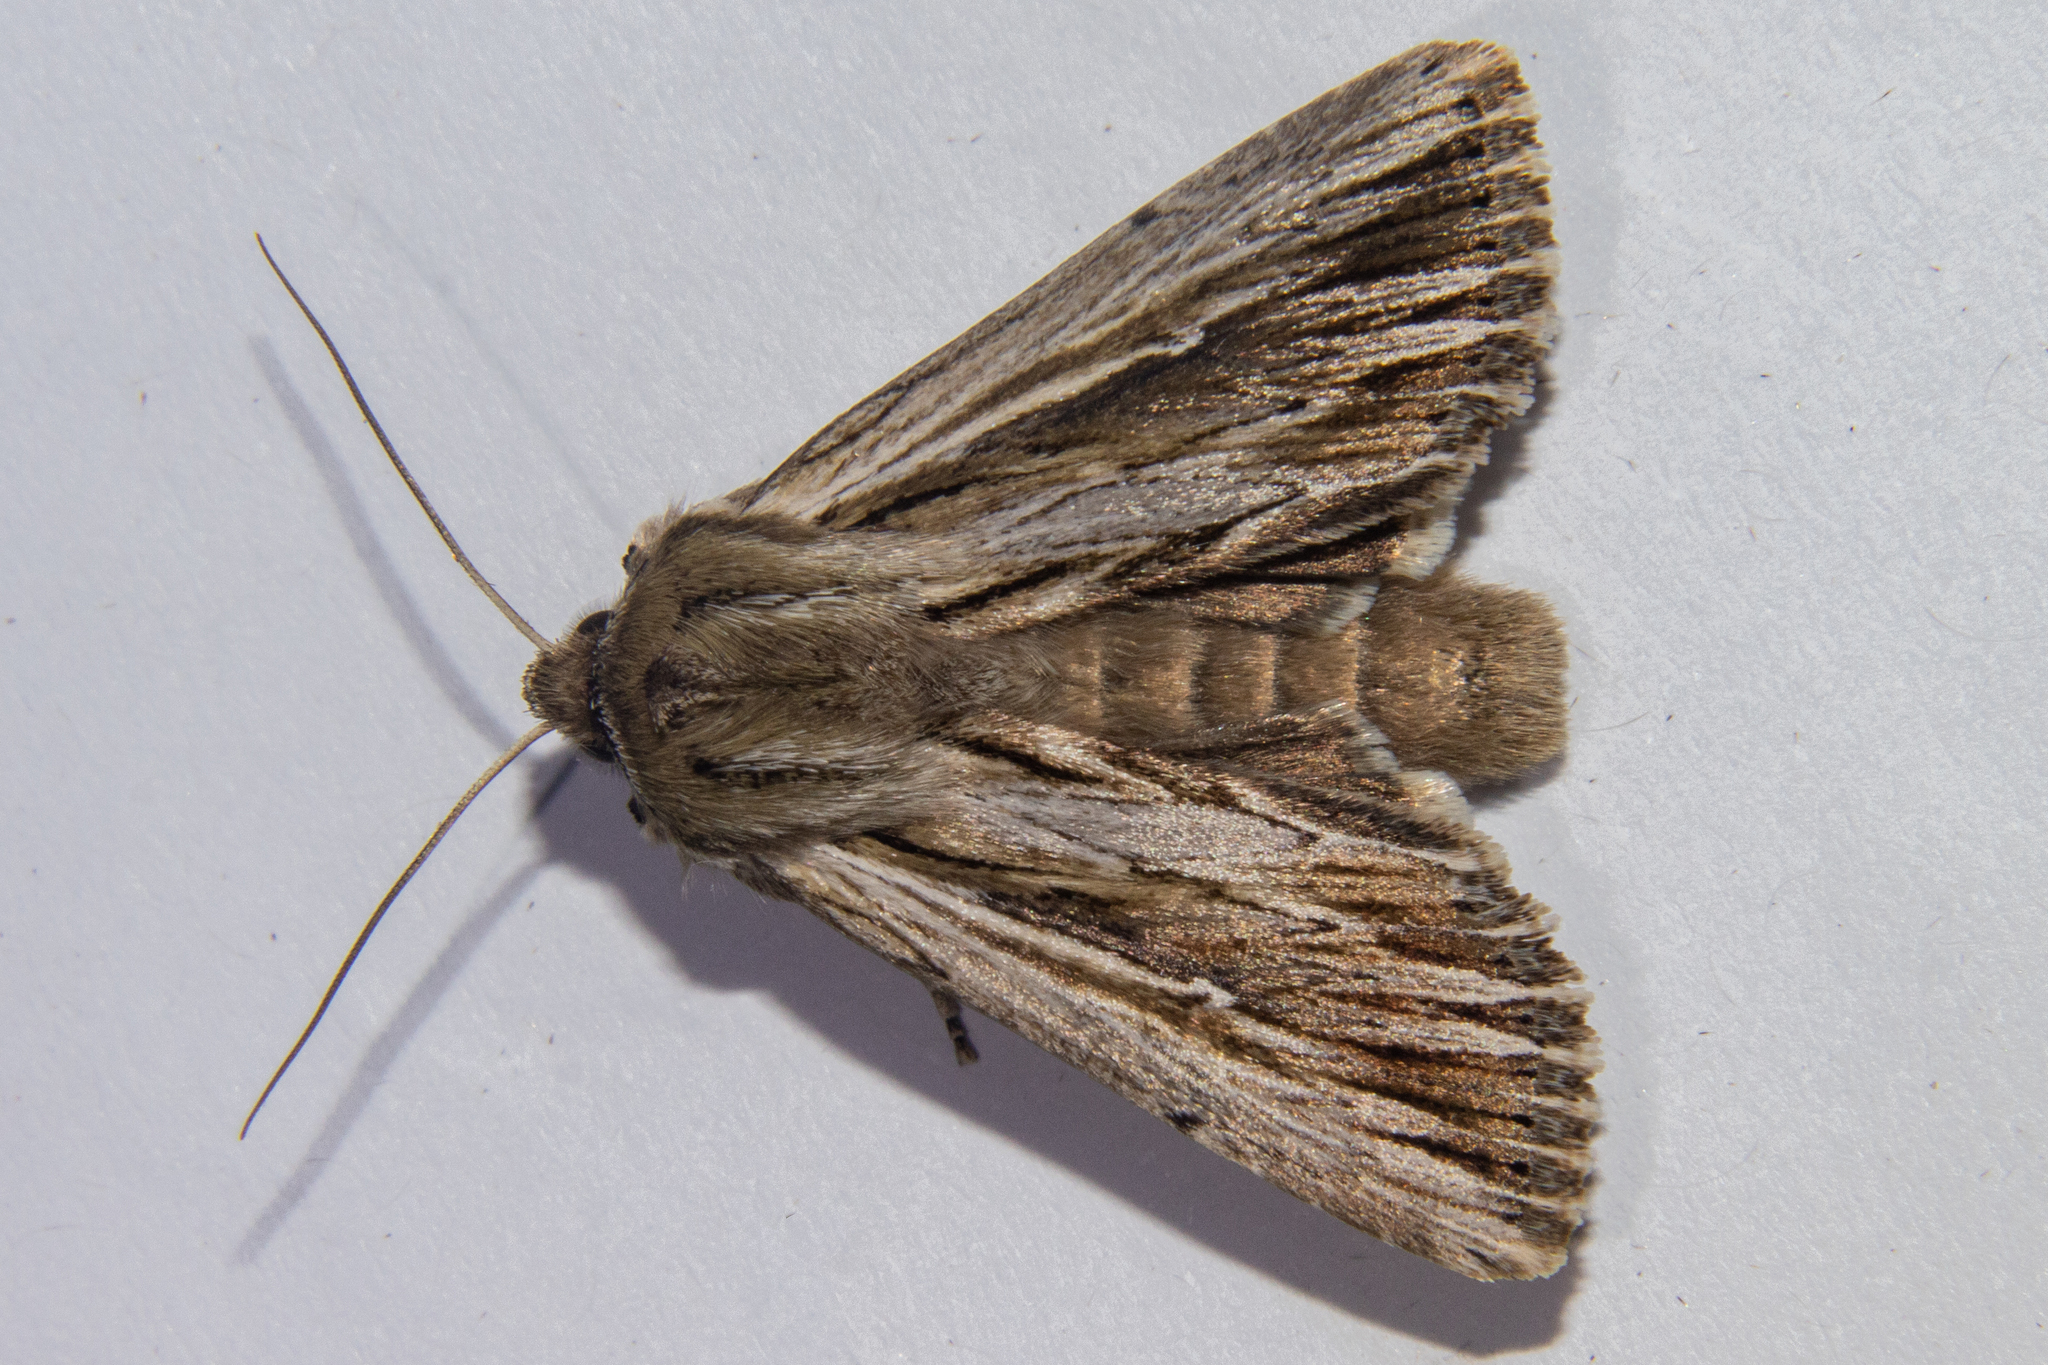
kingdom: Animalia
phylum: Arthropoda
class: Insecta
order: Lepidoptera
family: Noctuidae
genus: Persectania
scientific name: Persectania aversa
